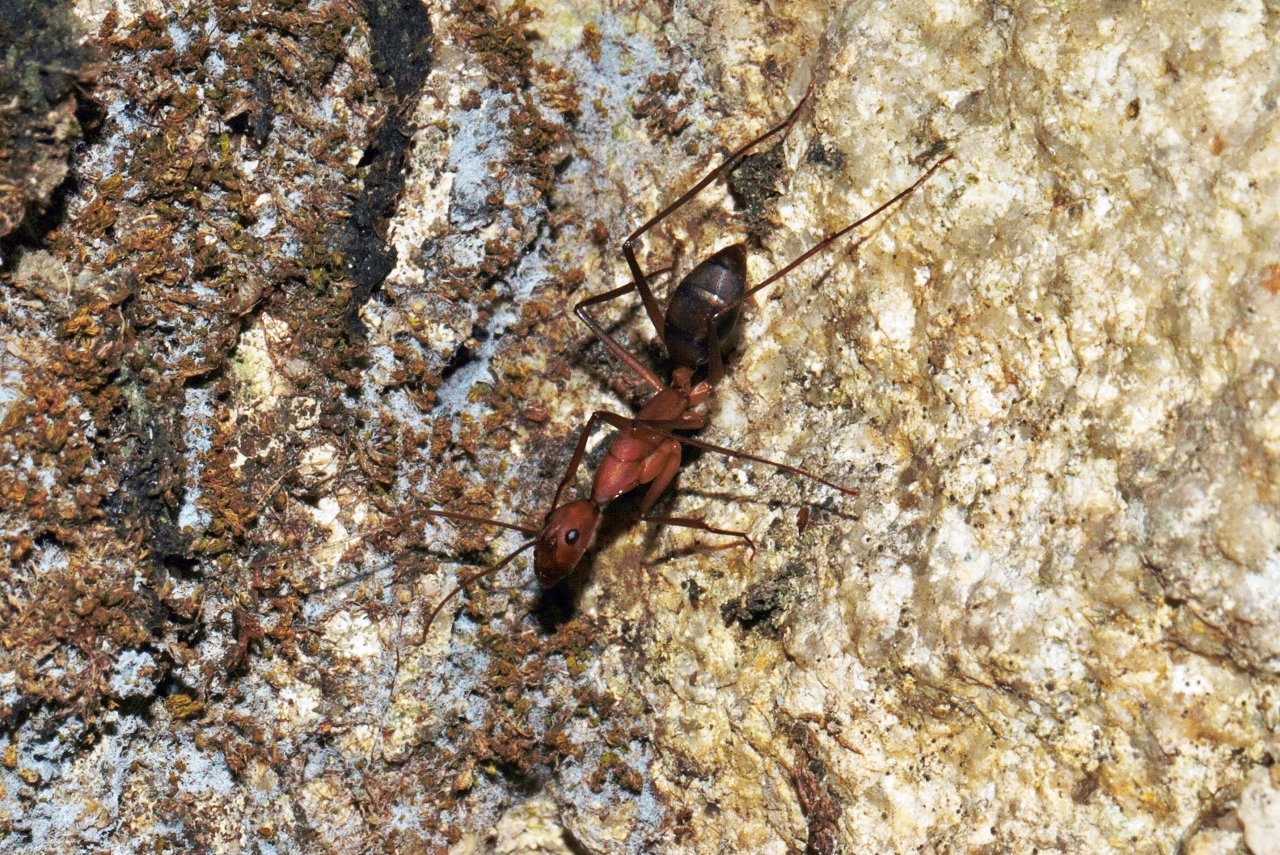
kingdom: Animalia
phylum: Arthropoda
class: Insecta
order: Hymenoptera
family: Formicidae
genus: Camponotus
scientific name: Camponotus etiolipes
